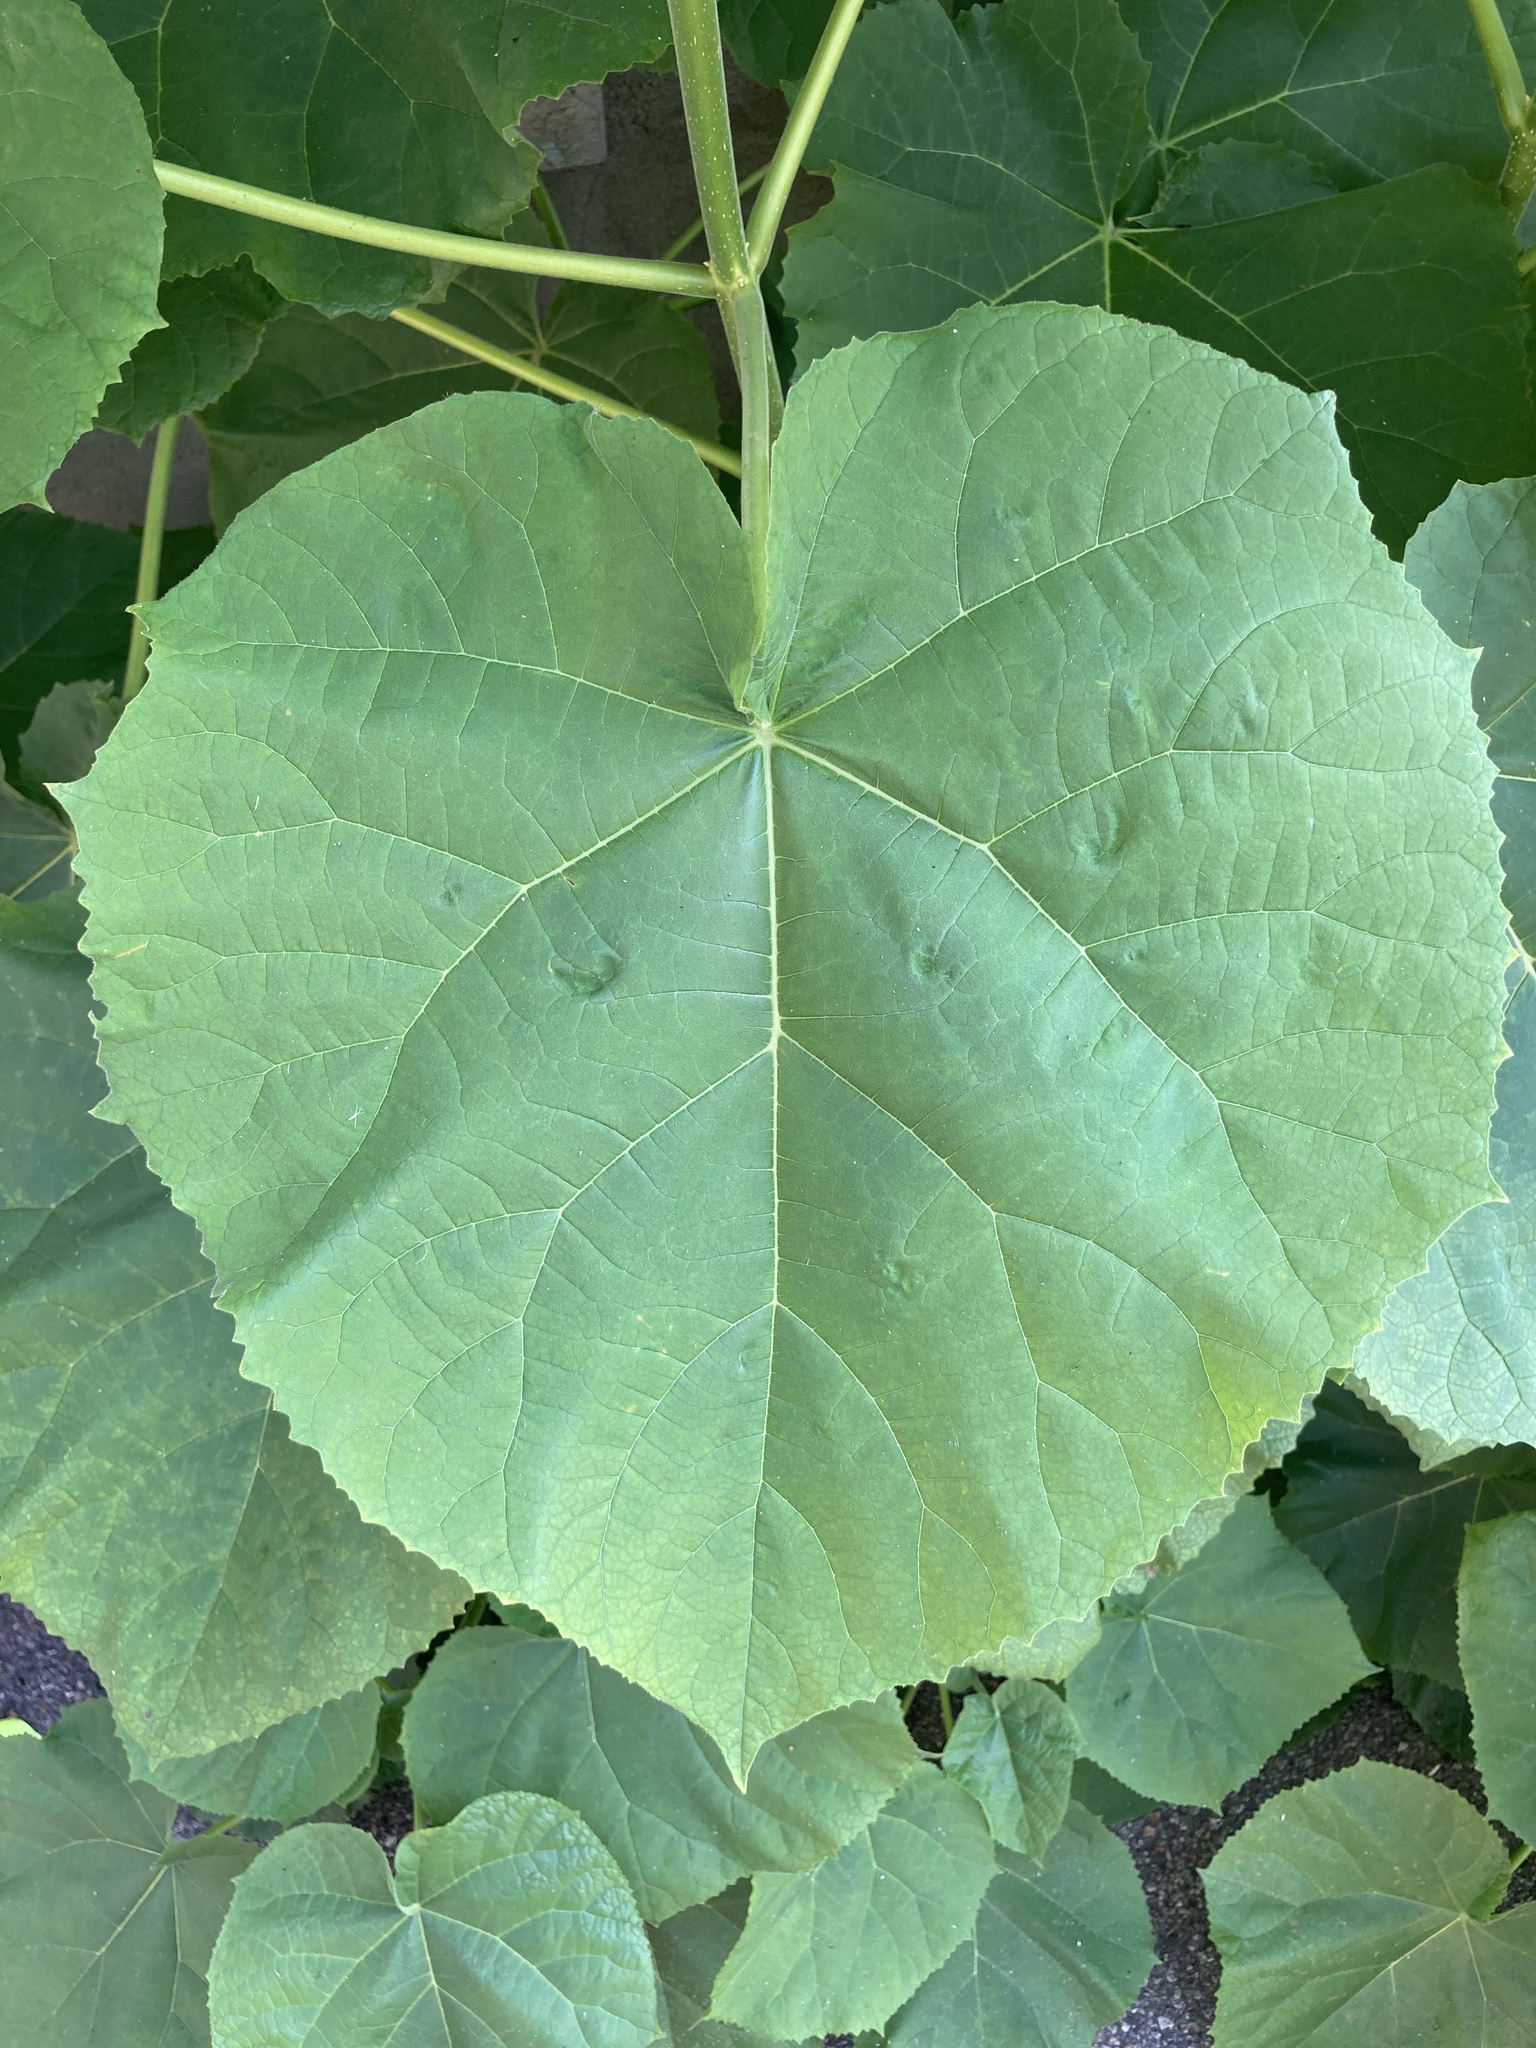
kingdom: Plantae
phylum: Tracheophyta
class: Magnoliopsida
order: Lamiales
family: Paulowniaceae
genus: Paulownia
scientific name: Paulownia tomentosa
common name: Foxglove-tree
